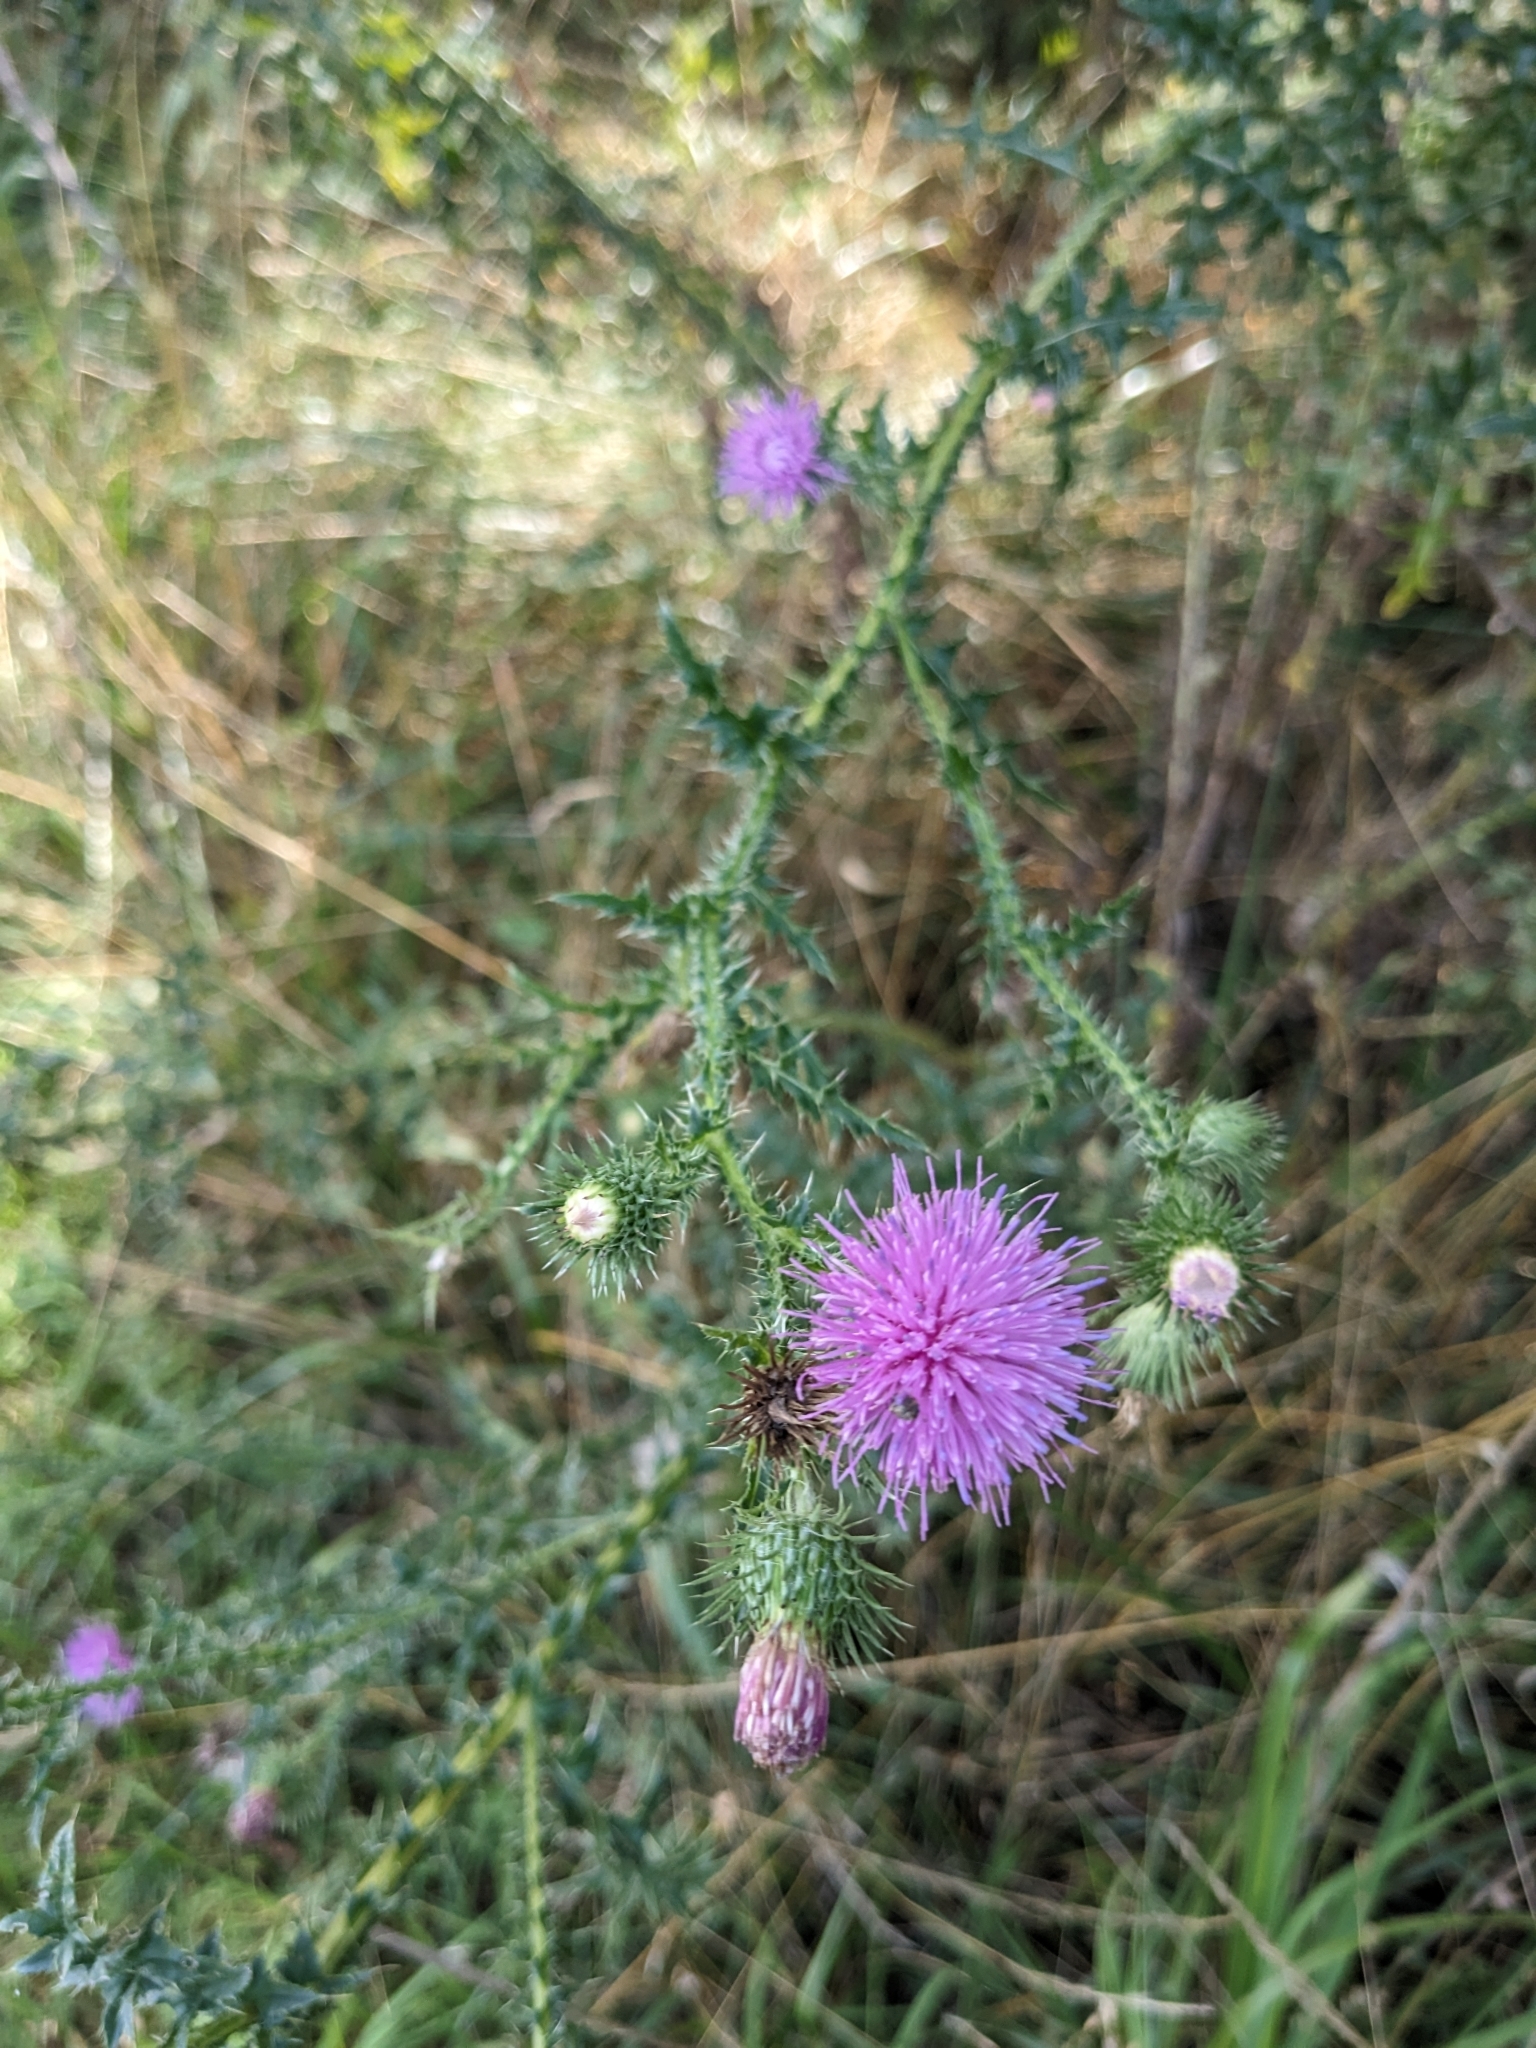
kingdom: Plantae
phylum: Tracheophyta
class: Magnoliopsida
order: Asterales
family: Asteraceae
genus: Carduus
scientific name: Carduus acanthoides
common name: Plumeless thistle
